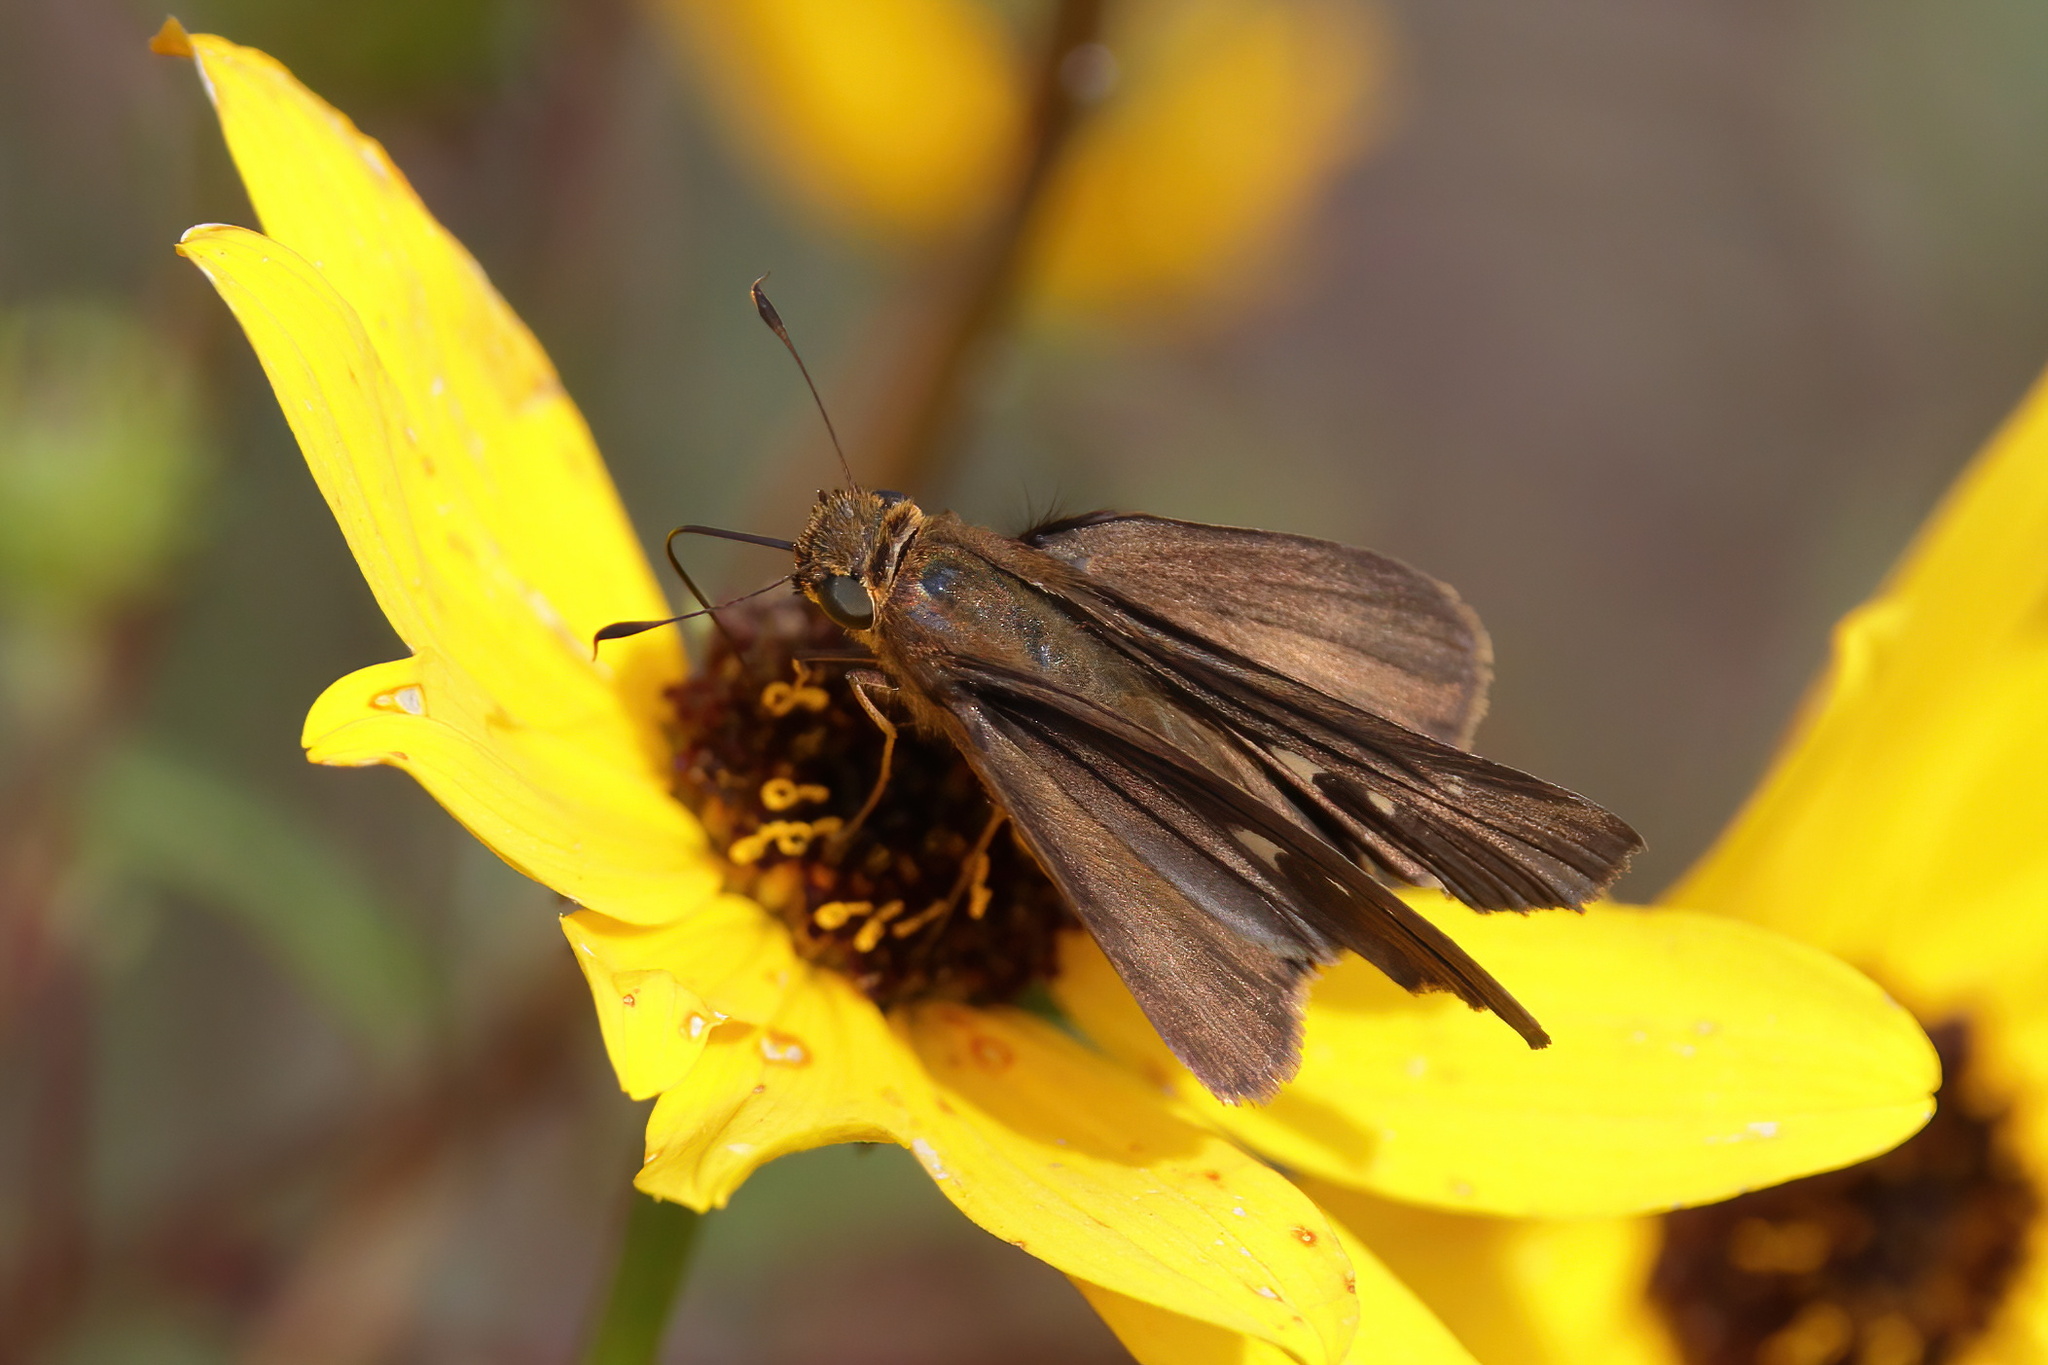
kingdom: Animalia
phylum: Arthropoda
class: Insecta
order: Lepidoptera
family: Hesperiidae
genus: Panoquina
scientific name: Panoquina ocola
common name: Ocola skipper
